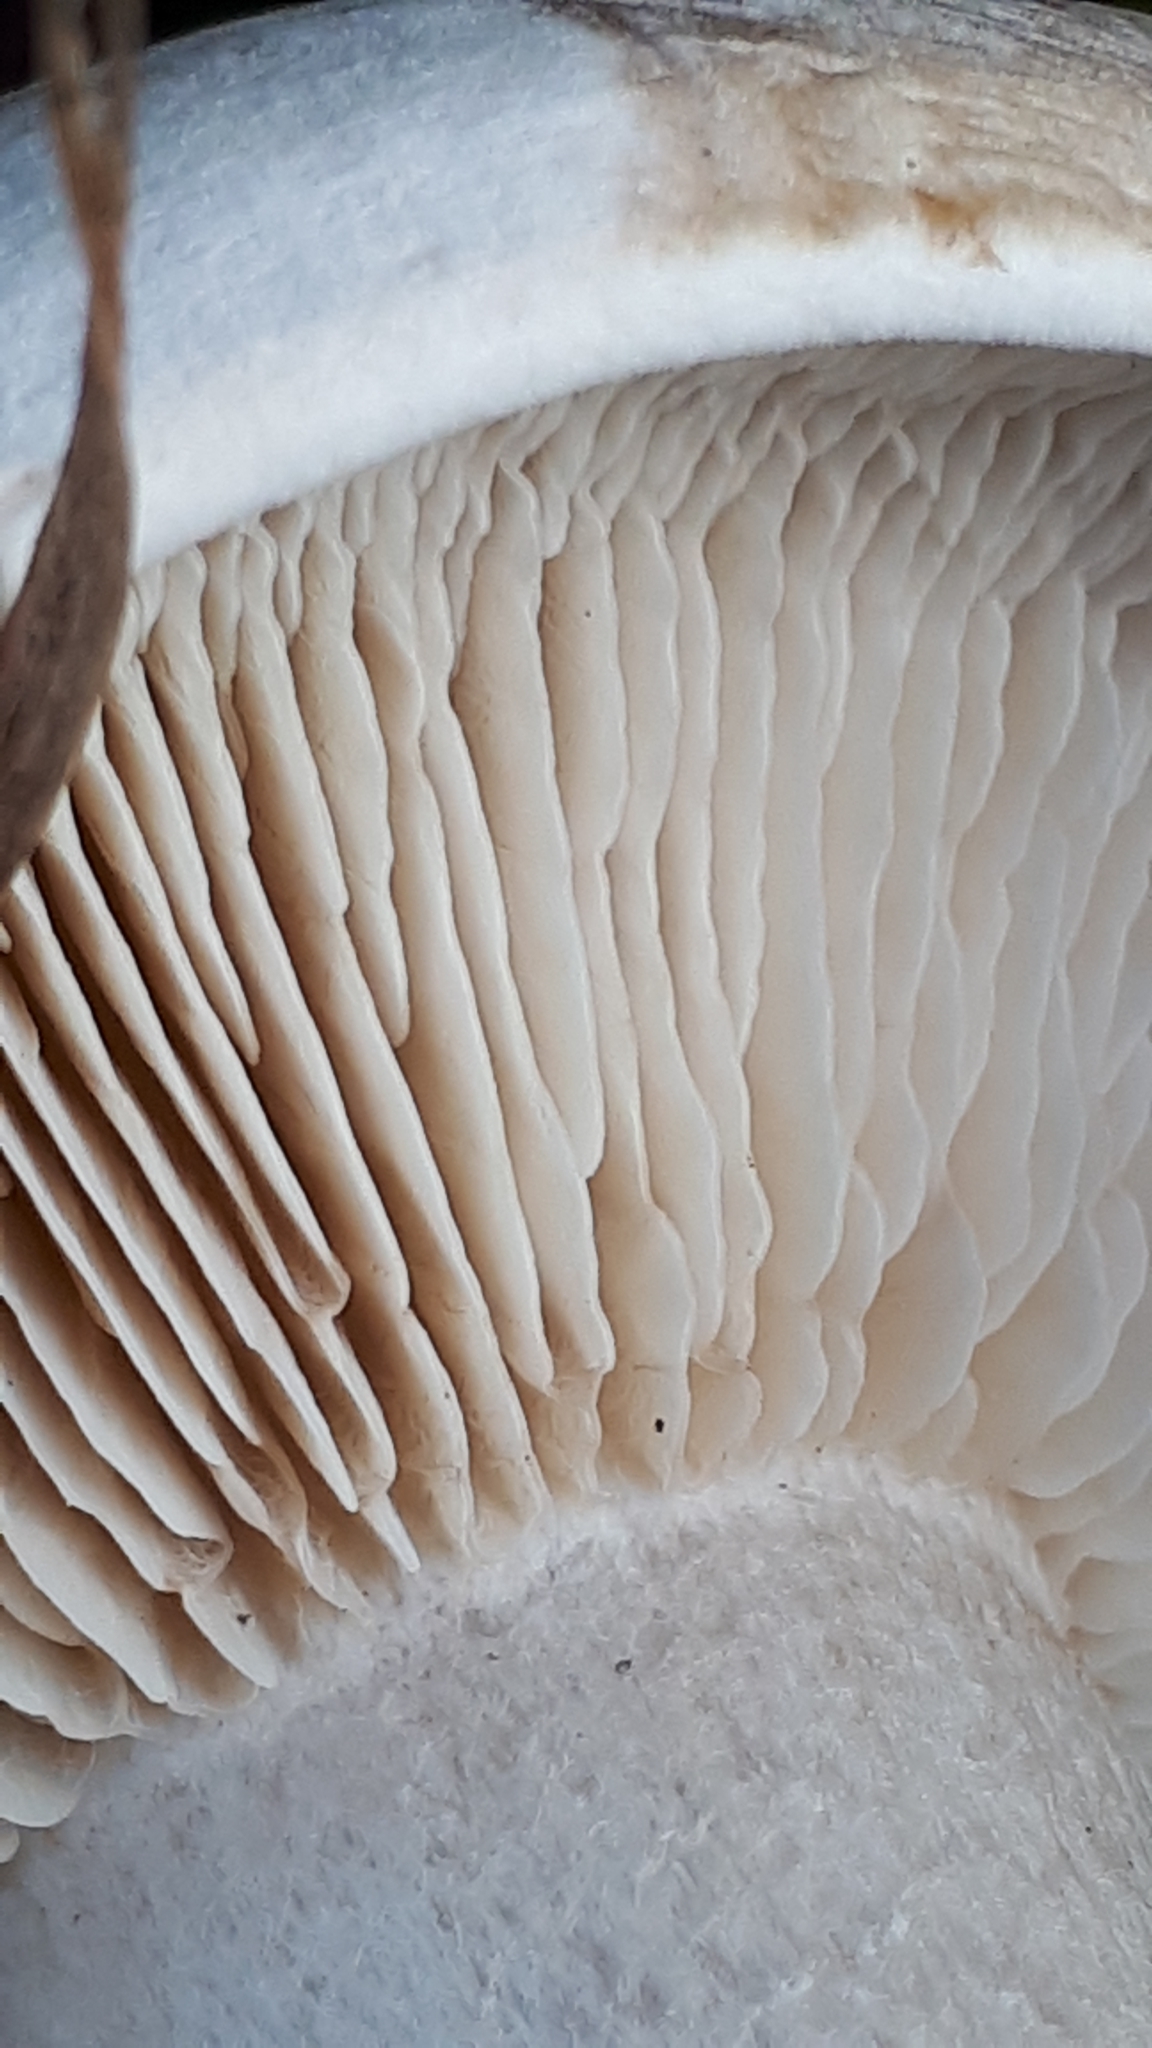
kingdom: Fungi
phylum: Basidiomycota
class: Agaricomycetes
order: Agaricales
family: Tricholomataceae
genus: Clitocybe
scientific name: Clitocybe nebularis
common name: Clouded agaric
